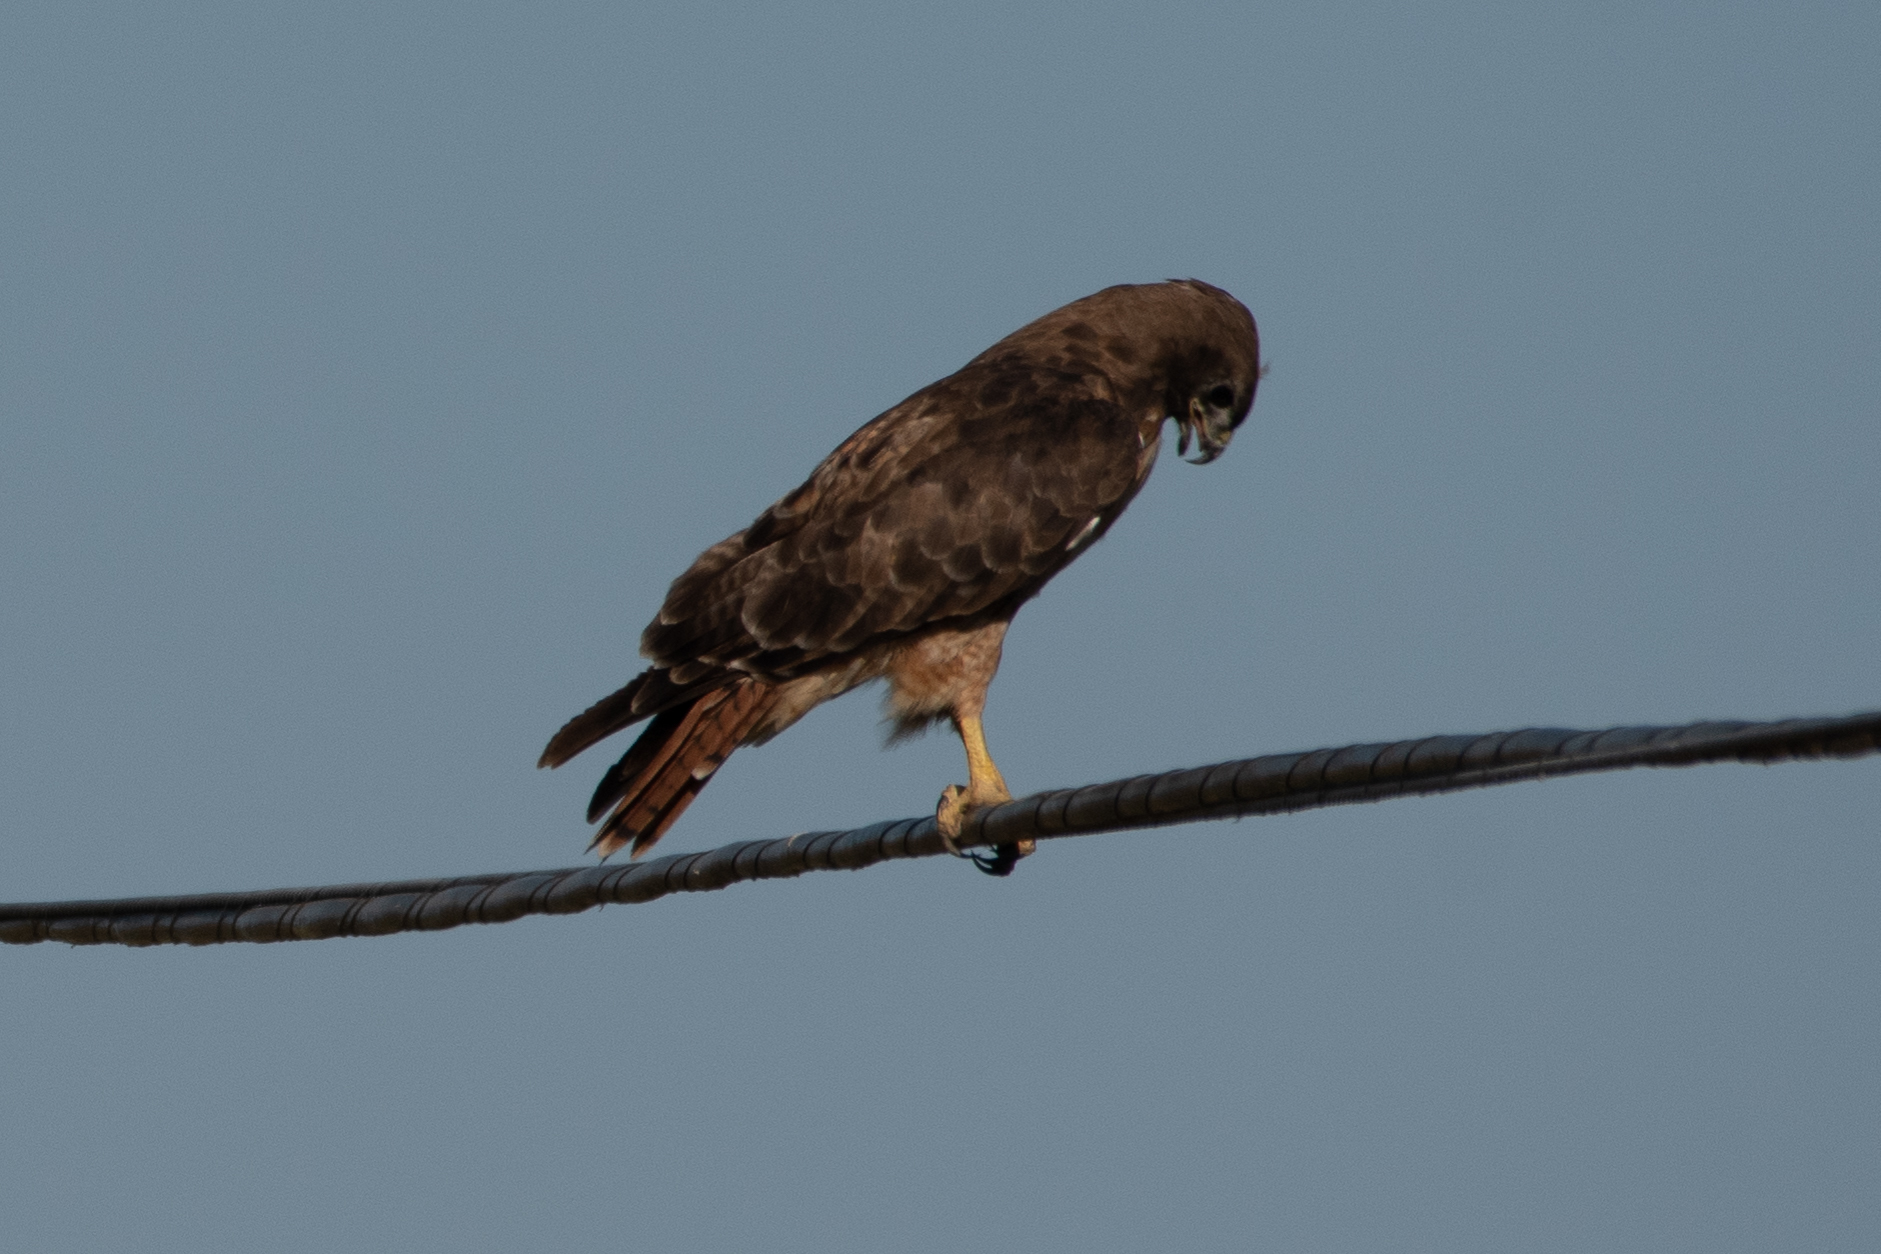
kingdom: Animalia
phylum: Chordata
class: Aves
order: Accipitriformes
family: Accipitridae
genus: Buteo
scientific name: Buteo jamaicensis
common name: Red-tailed hawk
